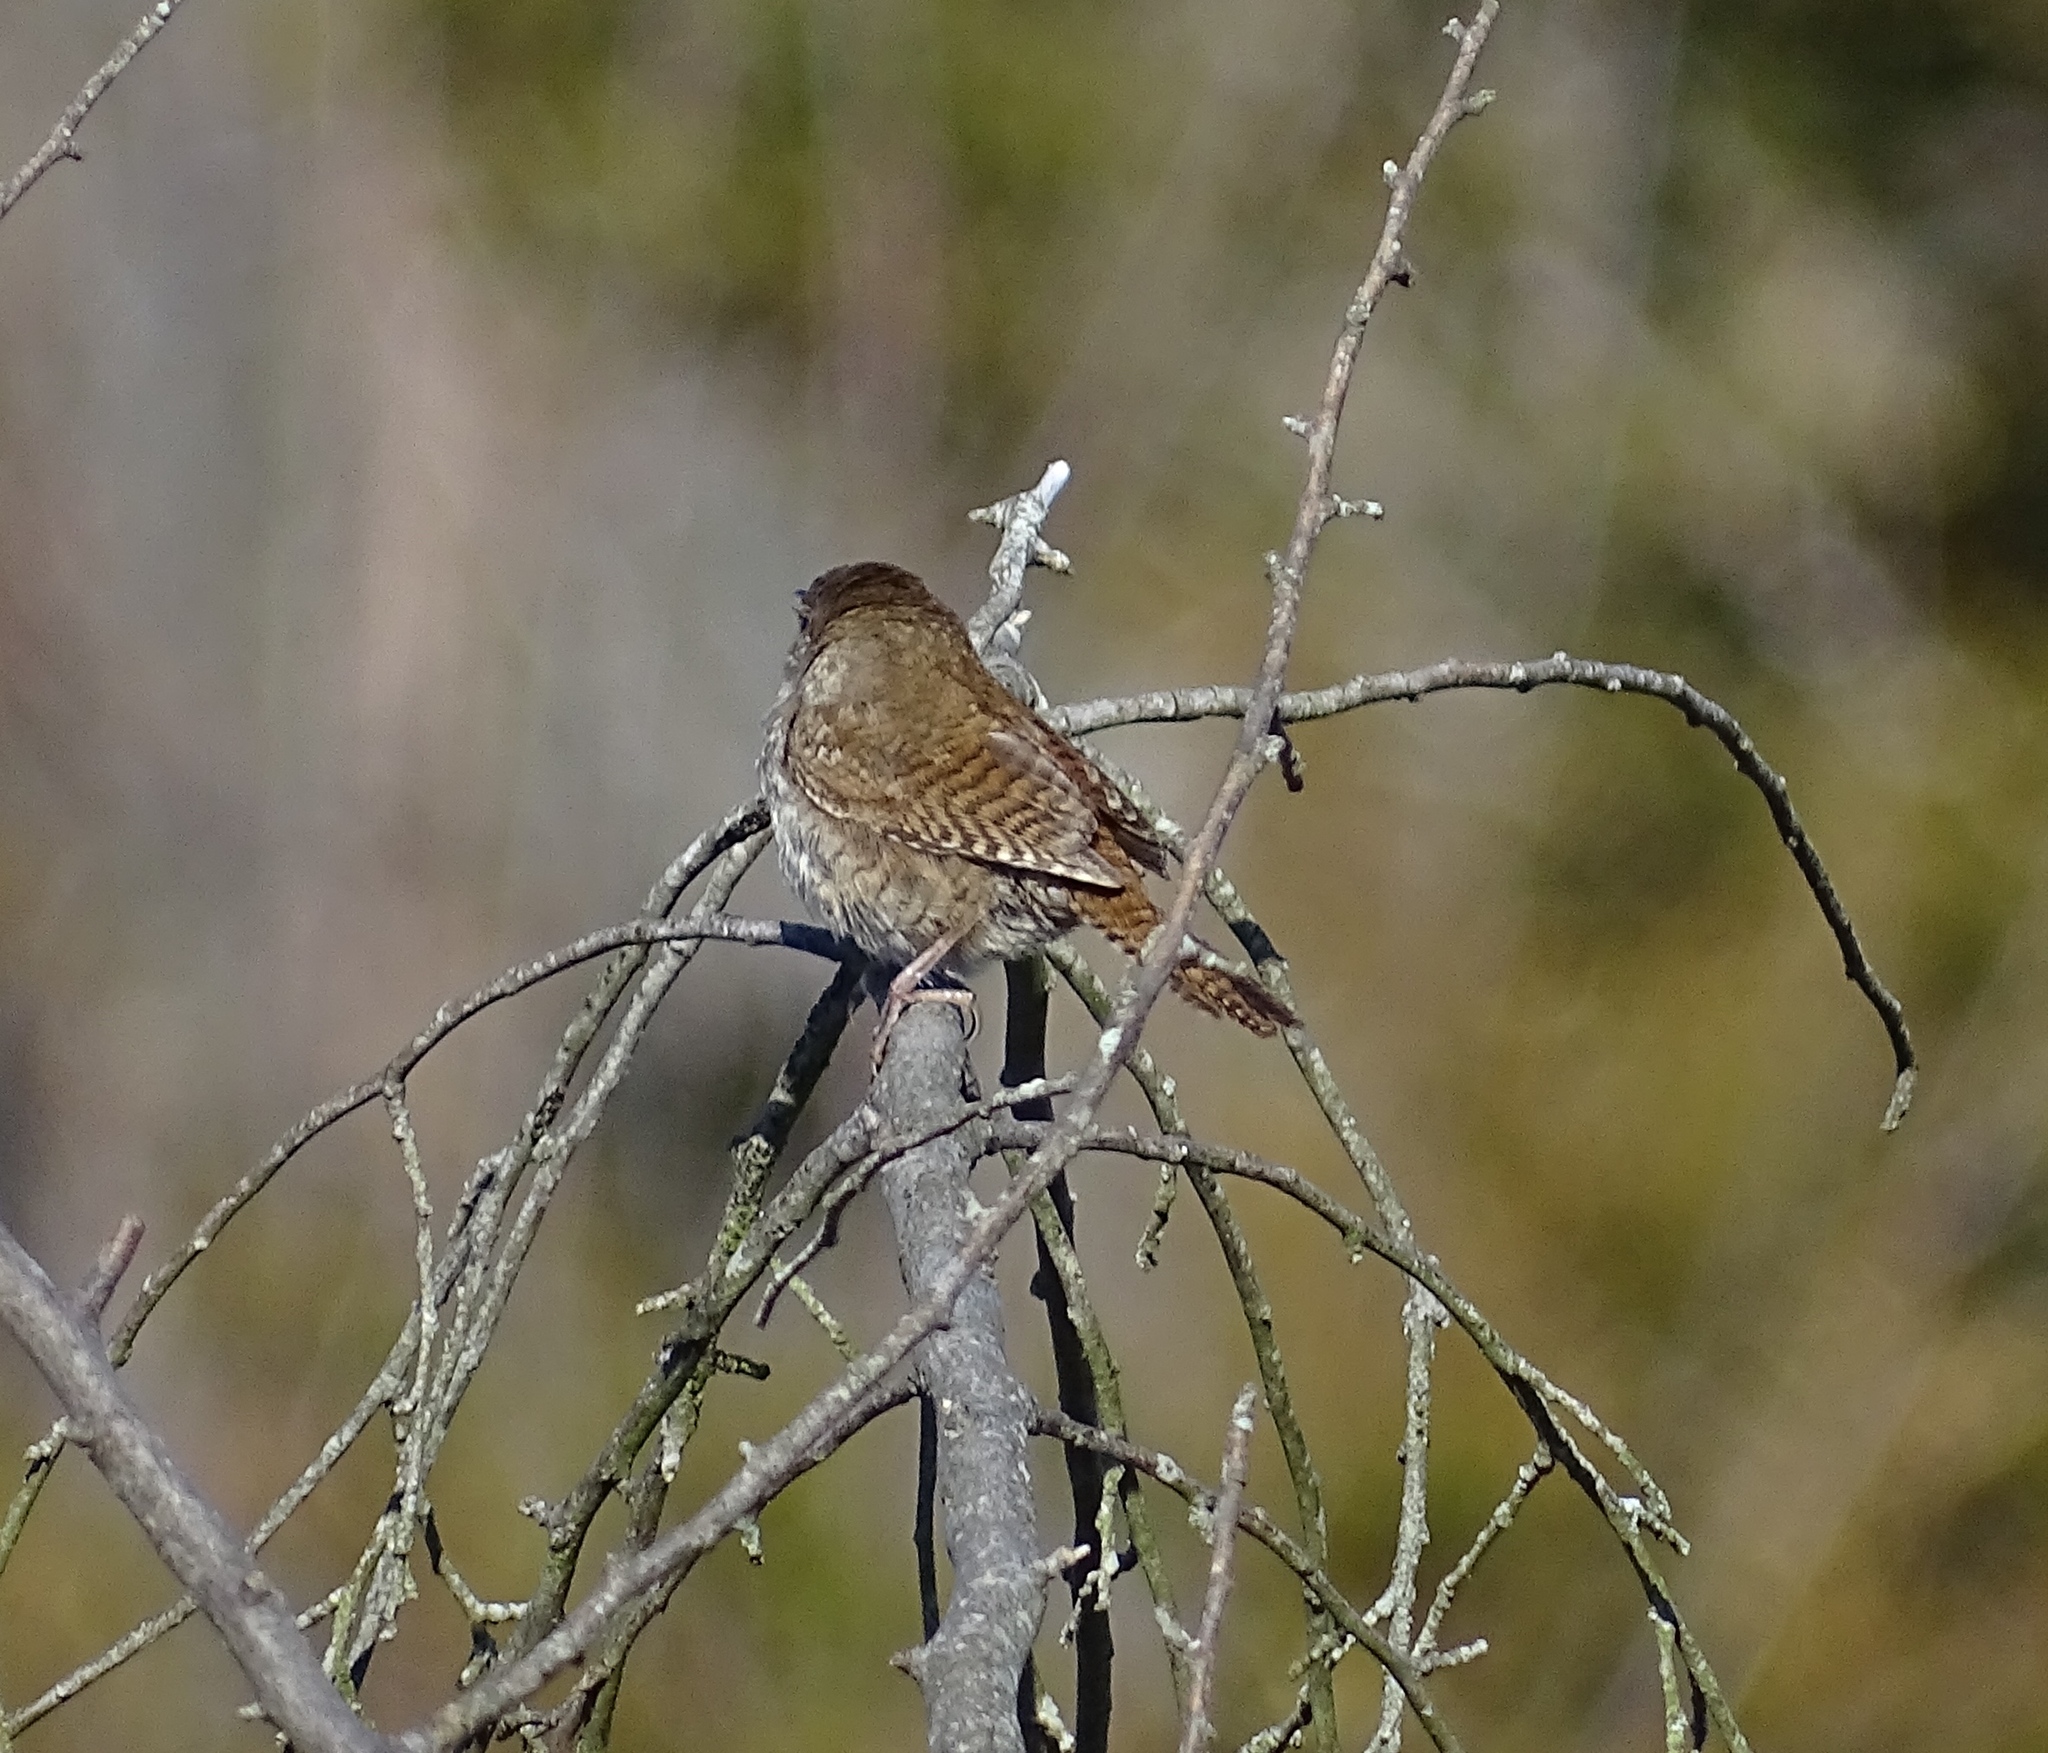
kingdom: Animalia
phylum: Chordata
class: Aves
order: Passeriformes
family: Troglodytidae
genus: Troglodytes
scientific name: Troglodytes aedon
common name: House wren
